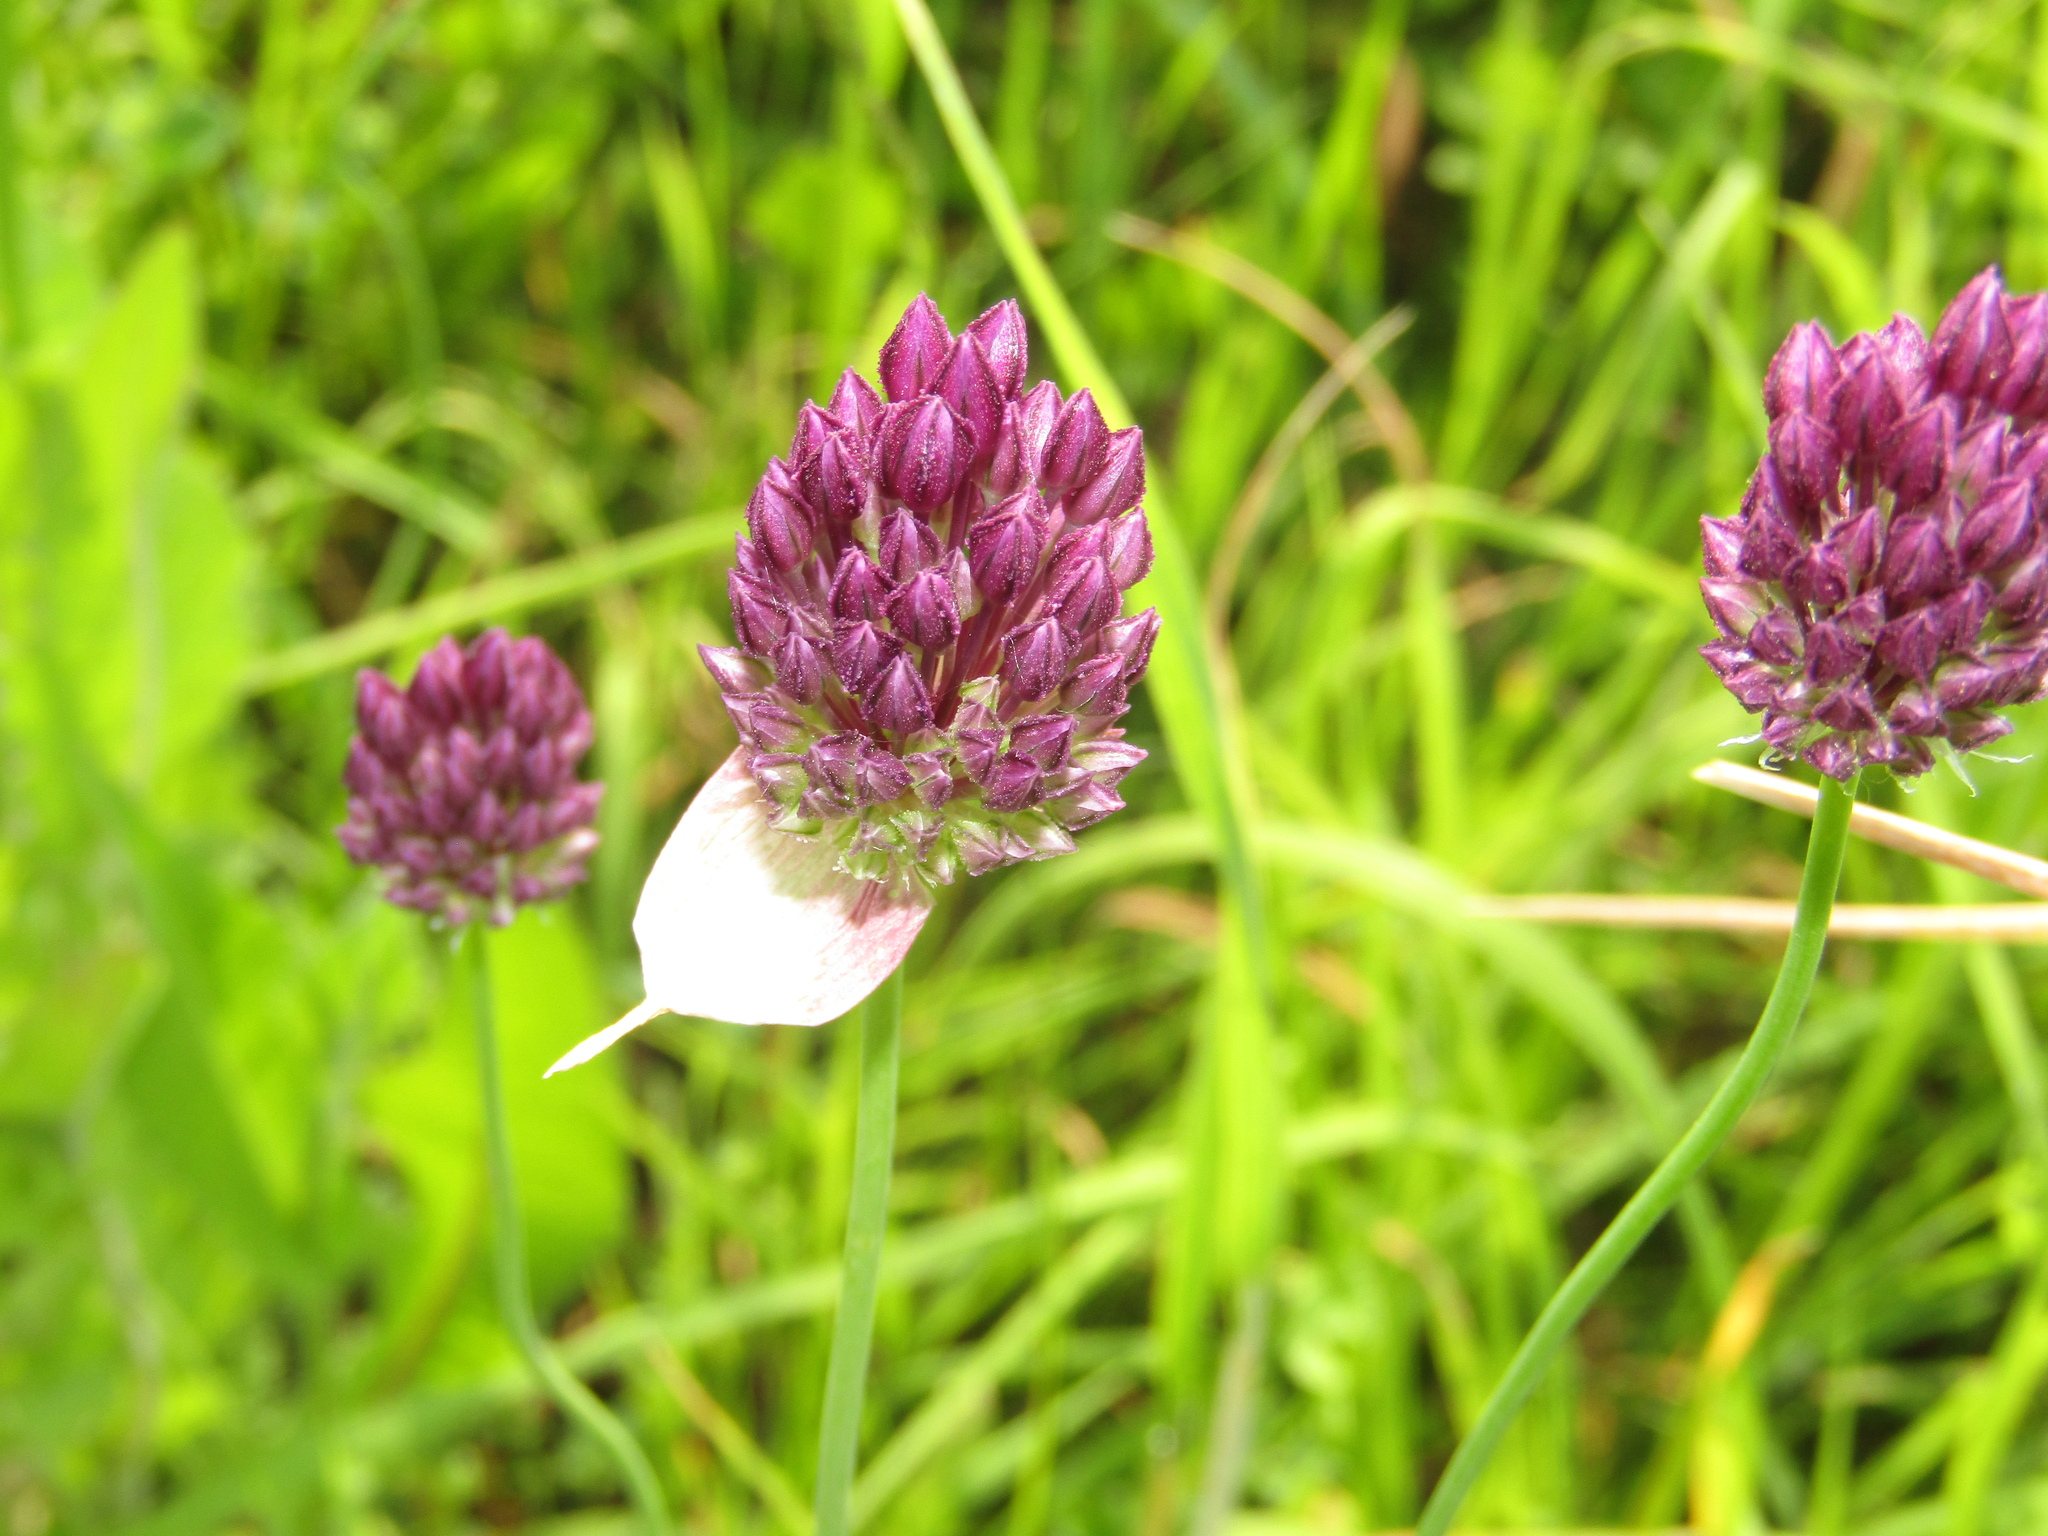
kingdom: Plantae
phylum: Tracheophyta
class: Liliopsida
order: Asparagales
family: Amaryllidaceae
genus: Allium
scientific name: Allium rotundum
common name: Sand leek
